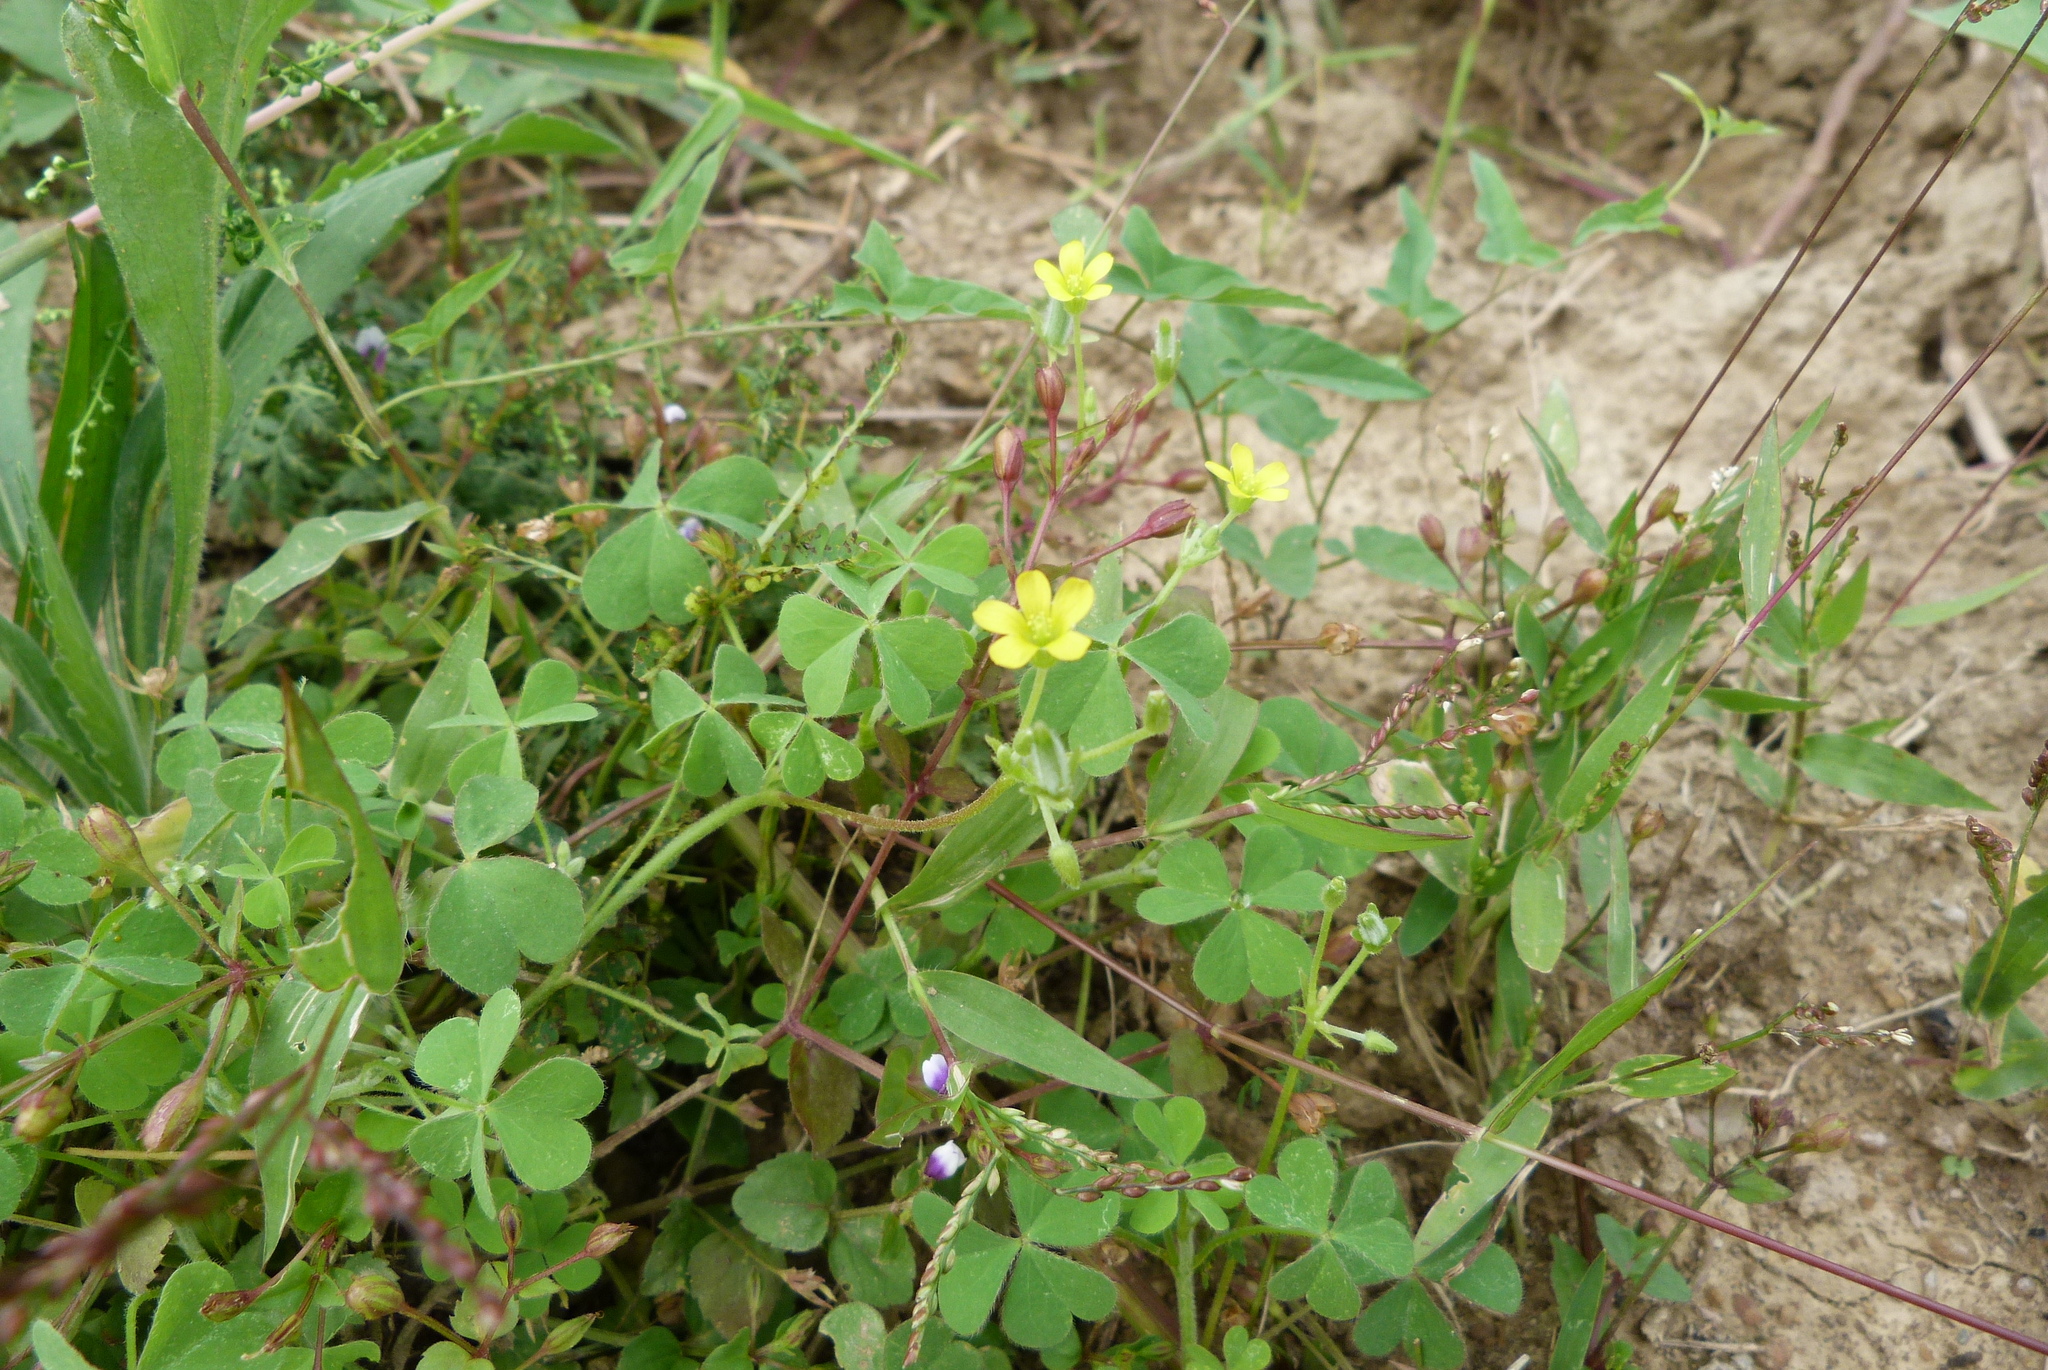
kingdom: Plantae
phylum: Tracheophyta
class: Magnoliopsida
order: Oxalidales
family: Oxalidaceae
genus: Oxalis
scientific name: Oxalis corniculata
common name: Procumbent yellow-sorrel
